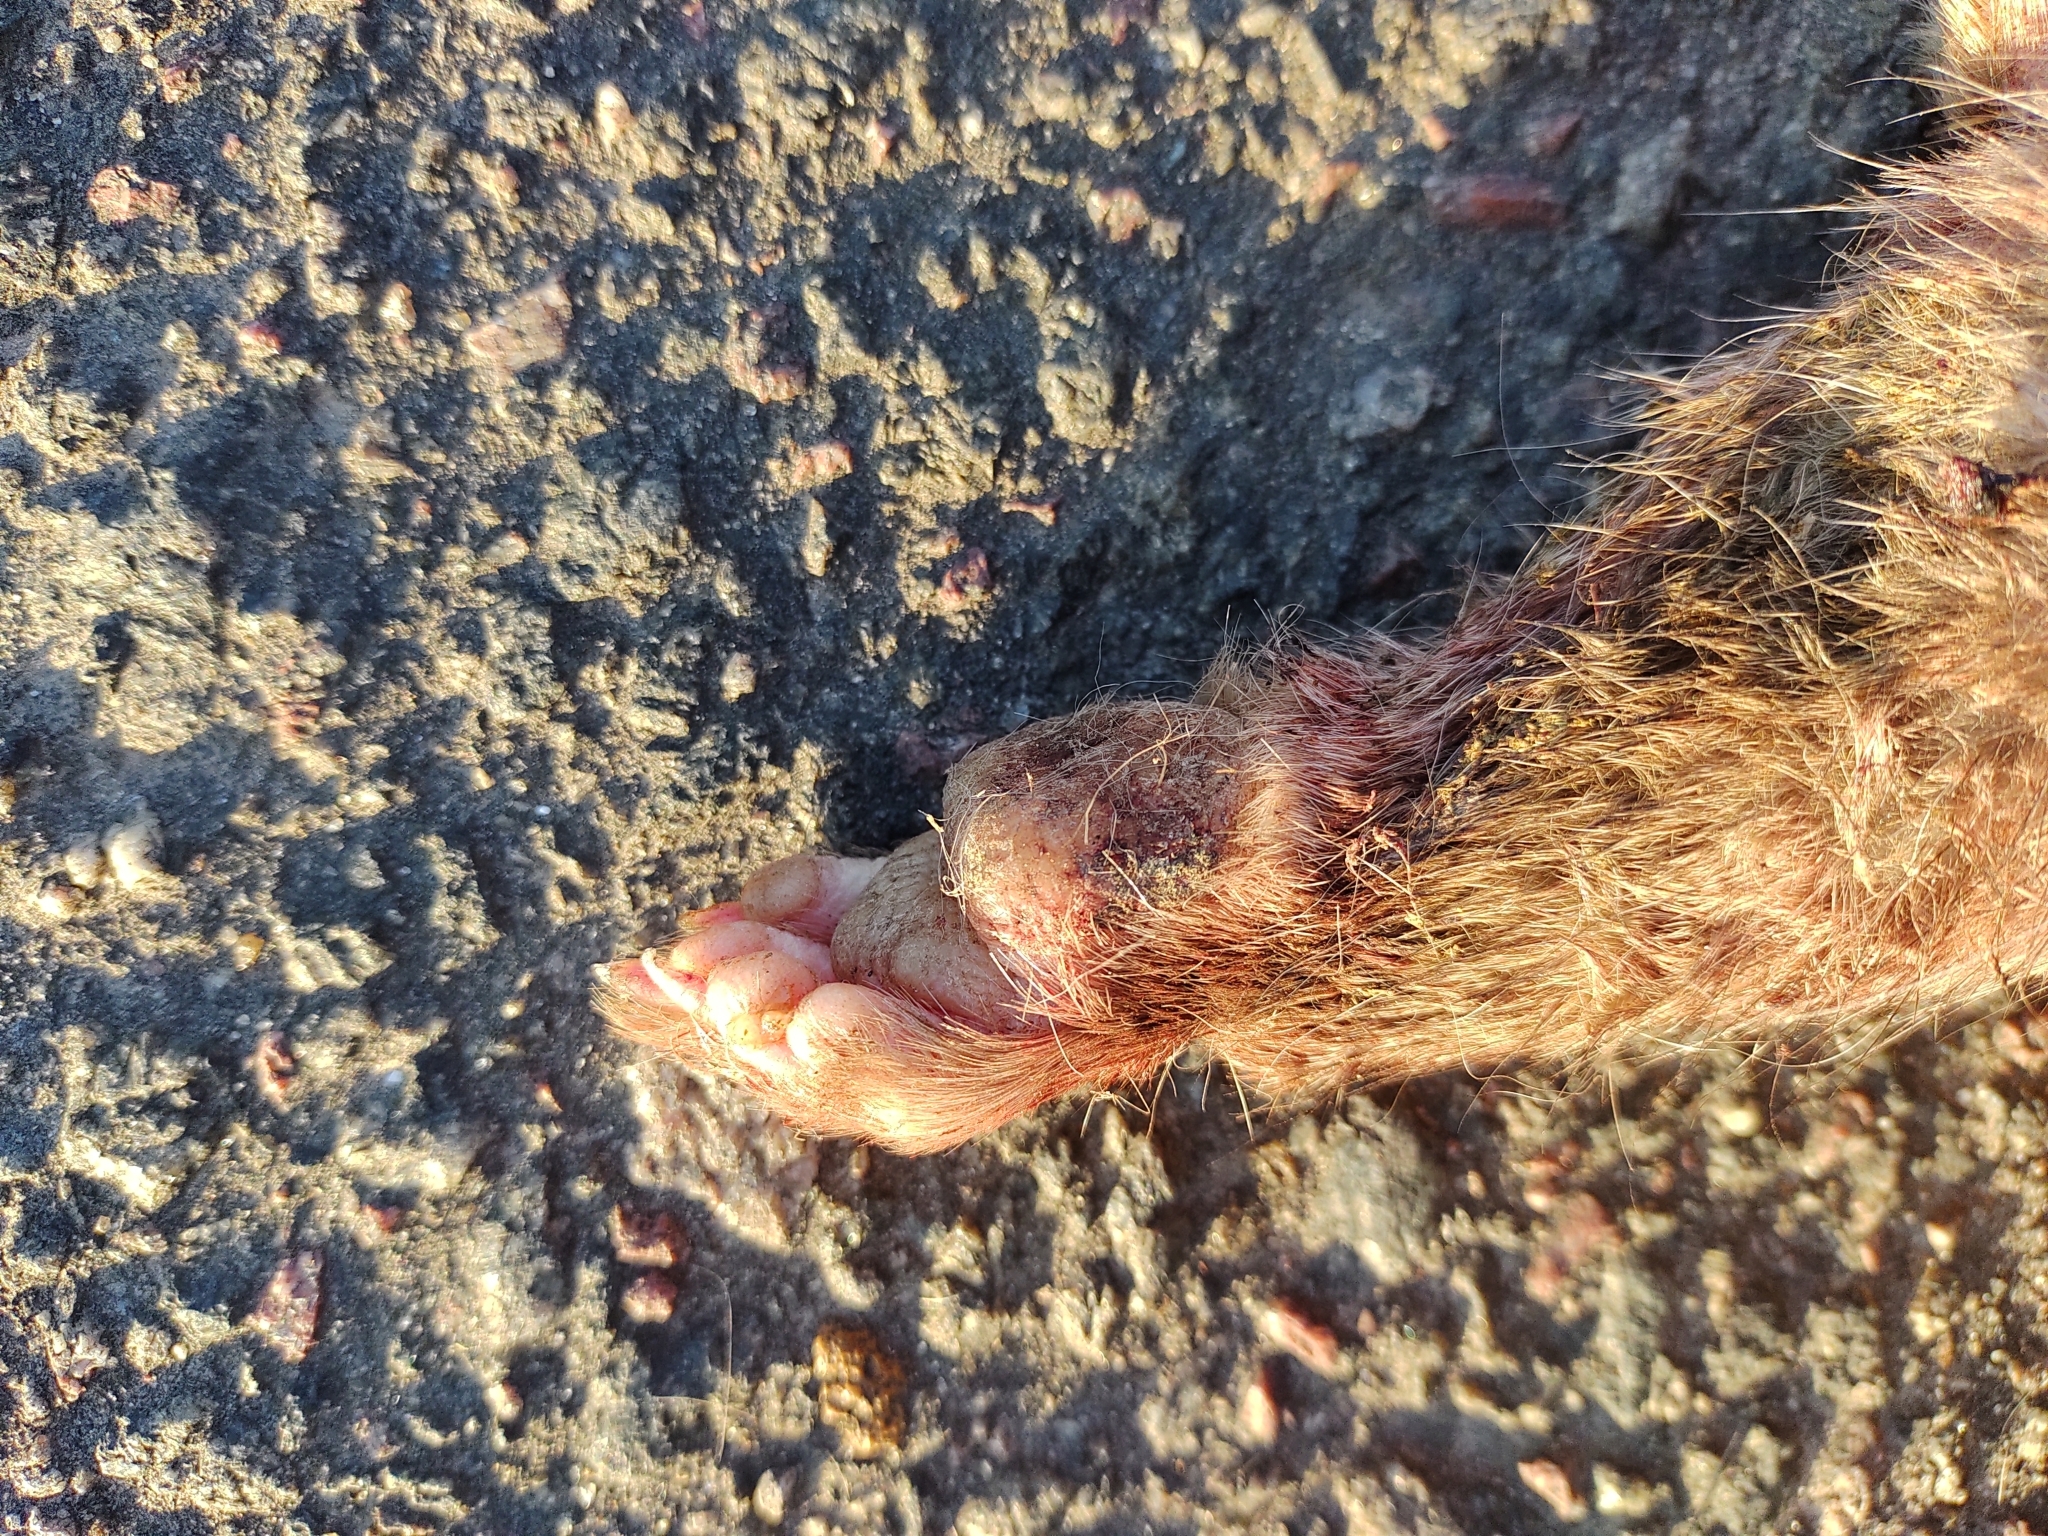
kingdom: Animalia
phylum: Chordata
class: Mammalia
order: Rodentia
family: Chinchillidae
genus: Lagostomus
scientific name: Lagostomus maximus
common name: Plains viscacha
